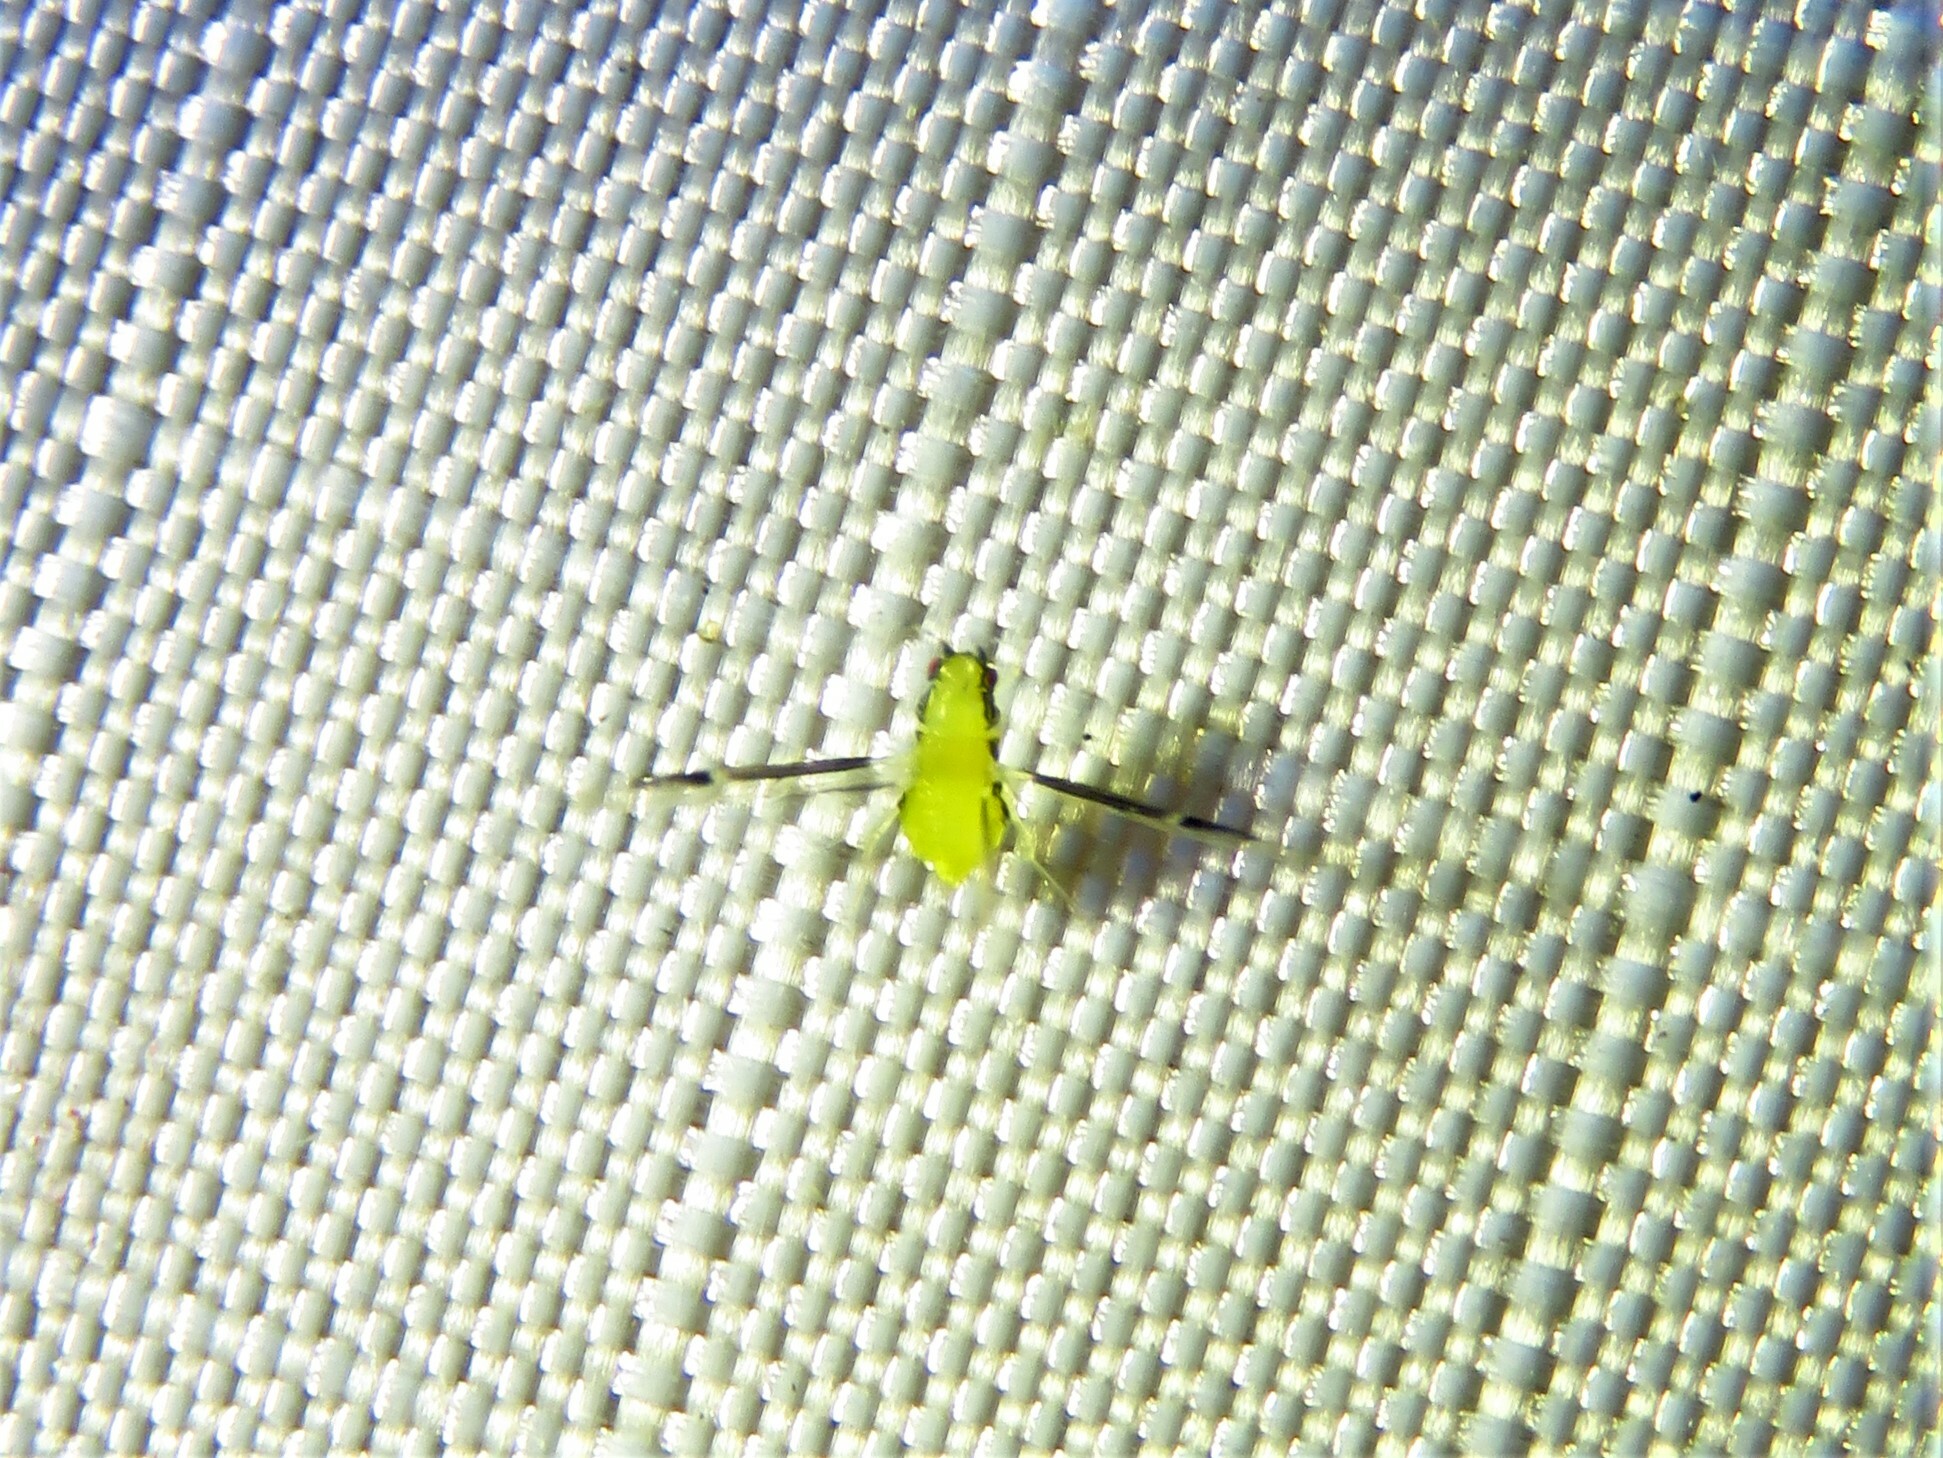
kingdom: Animalia
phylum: Arthropoda
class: Insecta
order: Hemiptera
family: Aphididae
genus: Monellia
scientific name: Monellia caryella
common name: Blackmargined aphid
